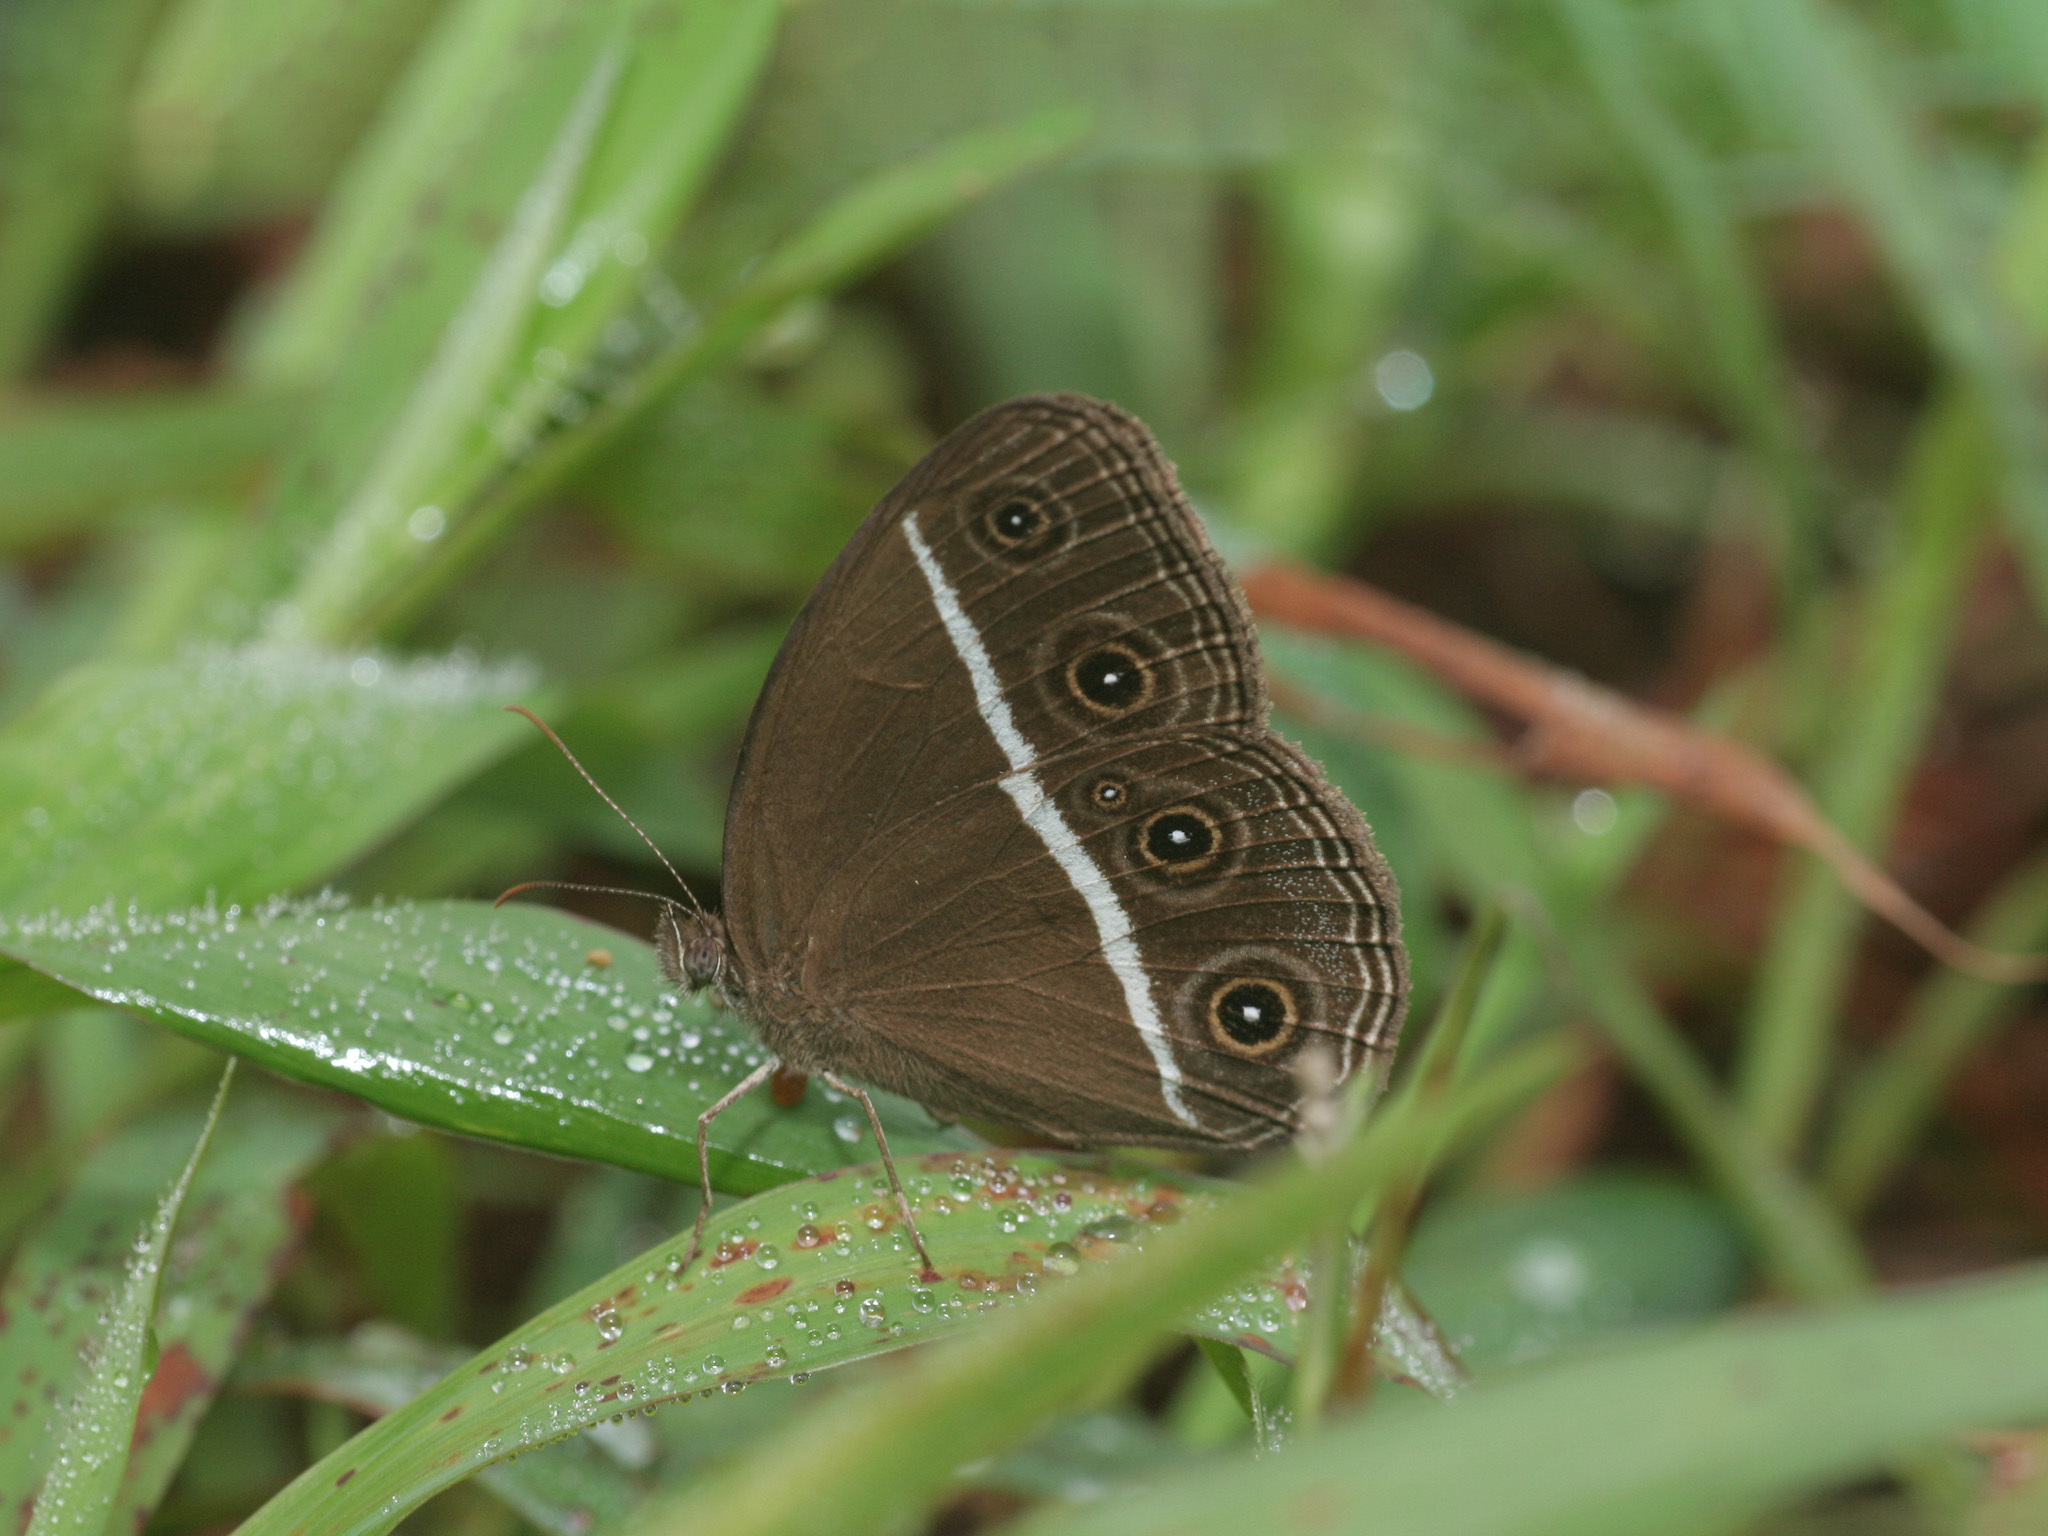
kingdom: Animalia
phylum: Arthropoda
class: Insecta
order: Lepidoptera
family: Nymphalidae
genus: Orsotriaena
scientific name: Orsotriaena medus
